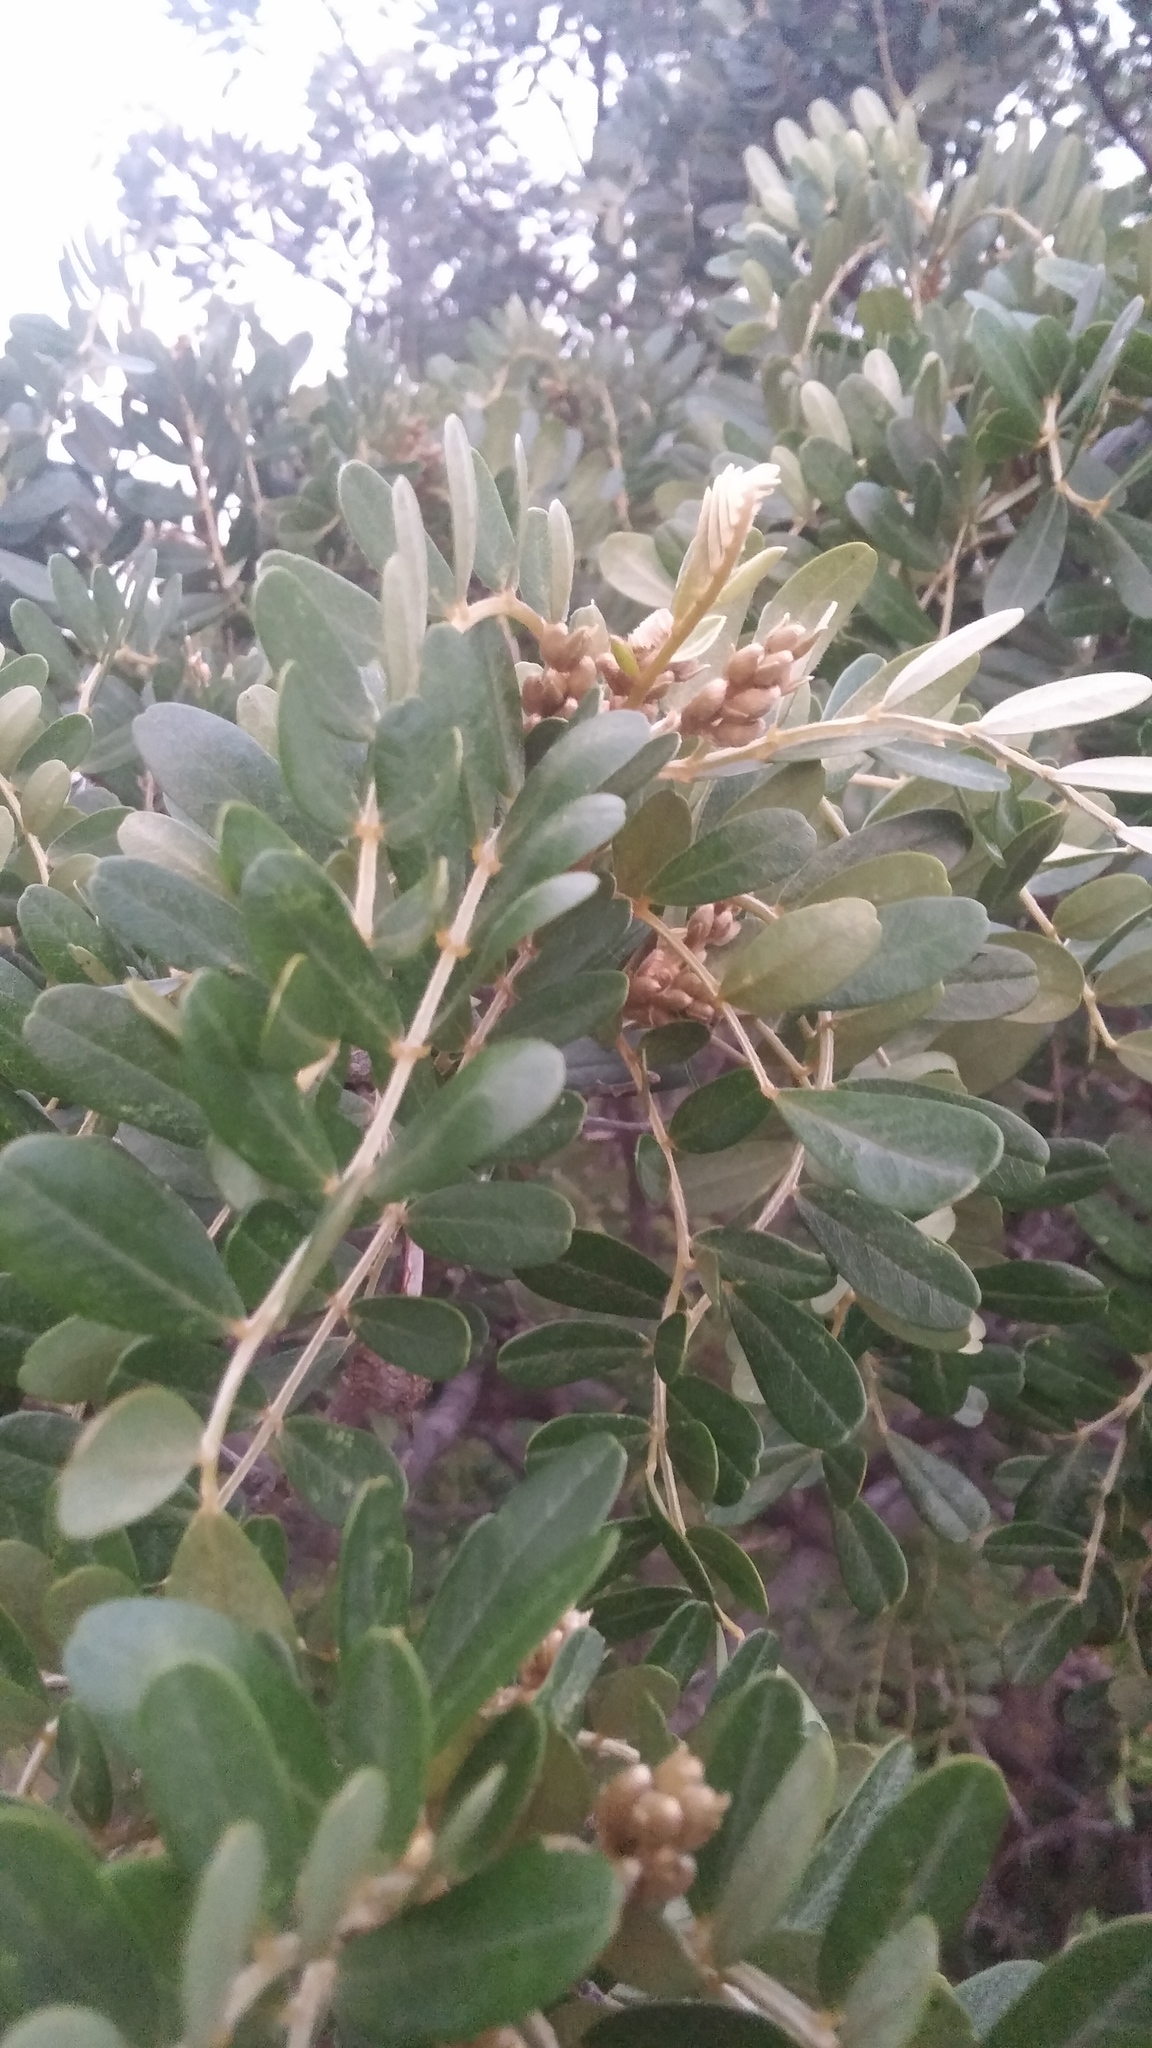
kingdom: Plantae
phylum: Tracheophyta
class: Magnoliopsida
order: Myrtales
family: Combretaceae
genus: Conocarpus
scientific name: Conocarpus erectus
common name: Button mangrove
